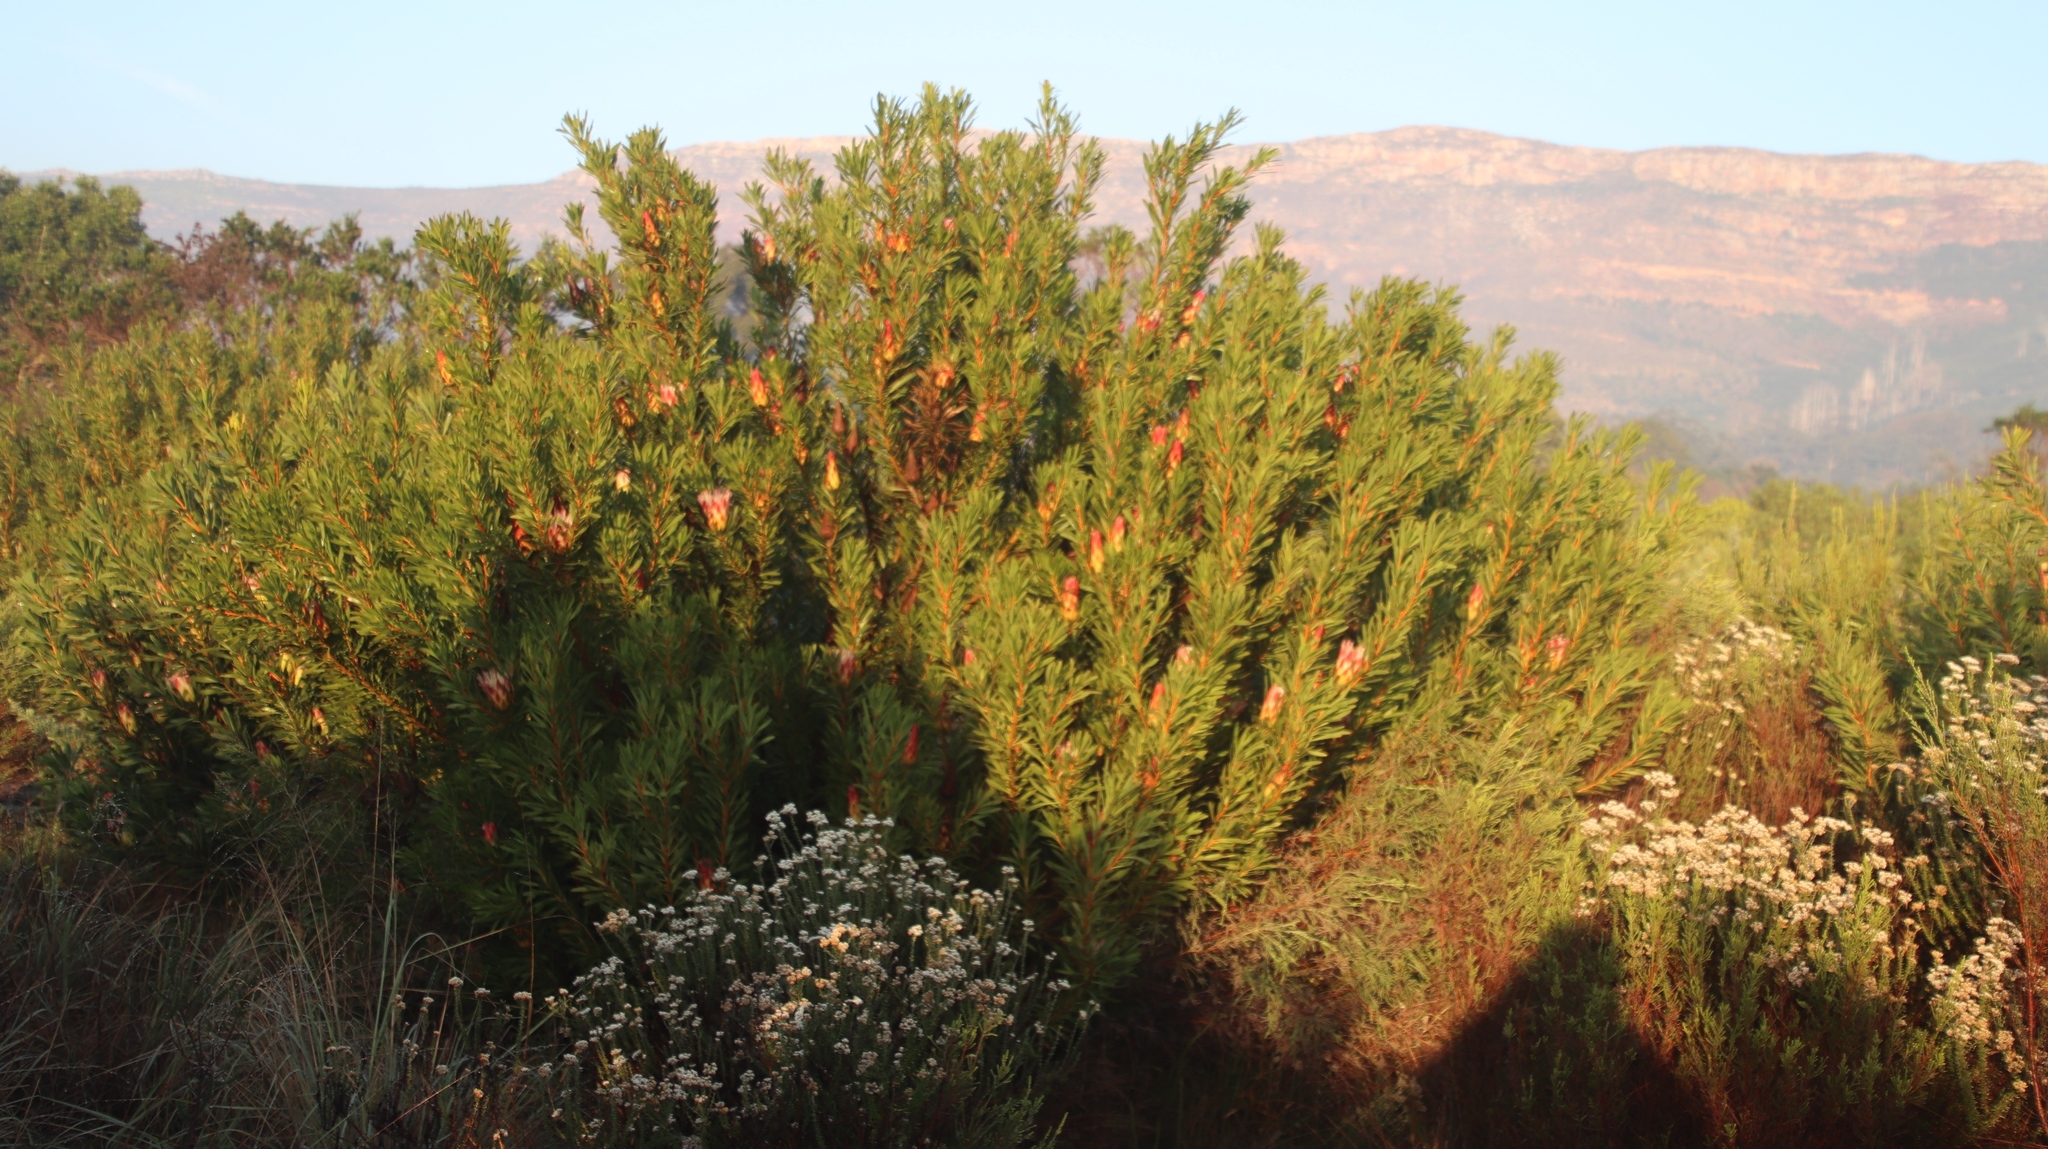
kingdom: Plantae
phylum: Tracheophyta
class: Magnoliopsida
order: Proteales
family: Proteaceae
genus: Protea
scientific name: Protea repens
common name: Sugarbush
